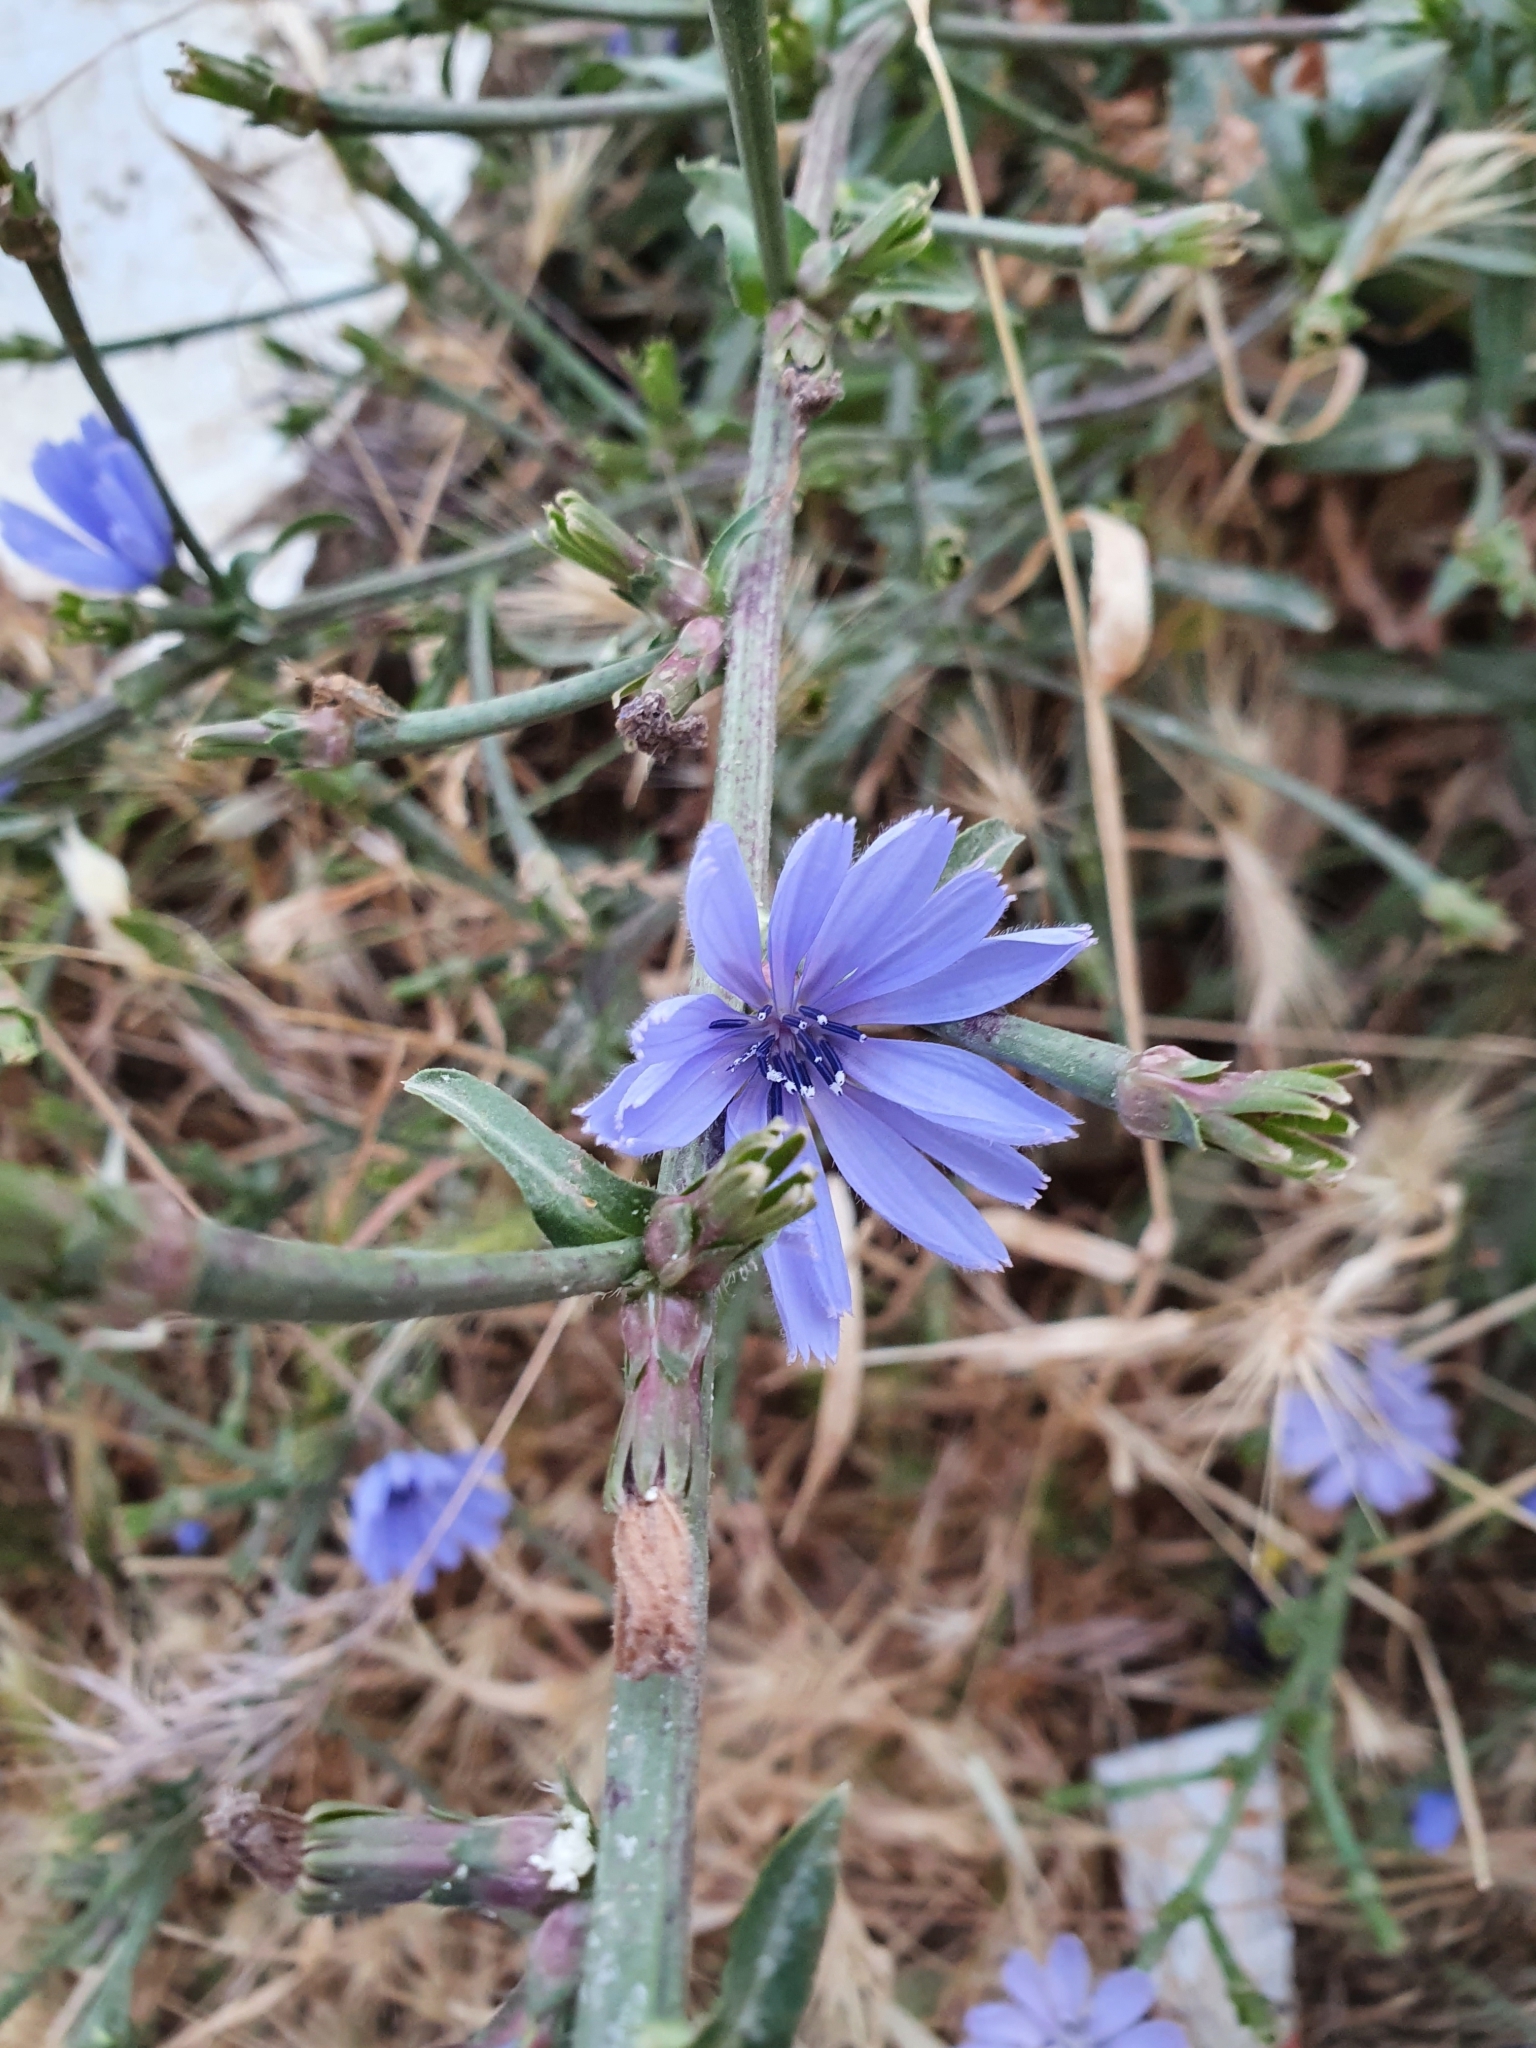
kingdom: Plantae
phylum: Tracheophyta
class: Magnoliopsida
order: Asterales
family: Asteraceae
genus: Cichorium
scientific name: Cichorium intybus
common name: Chicory
